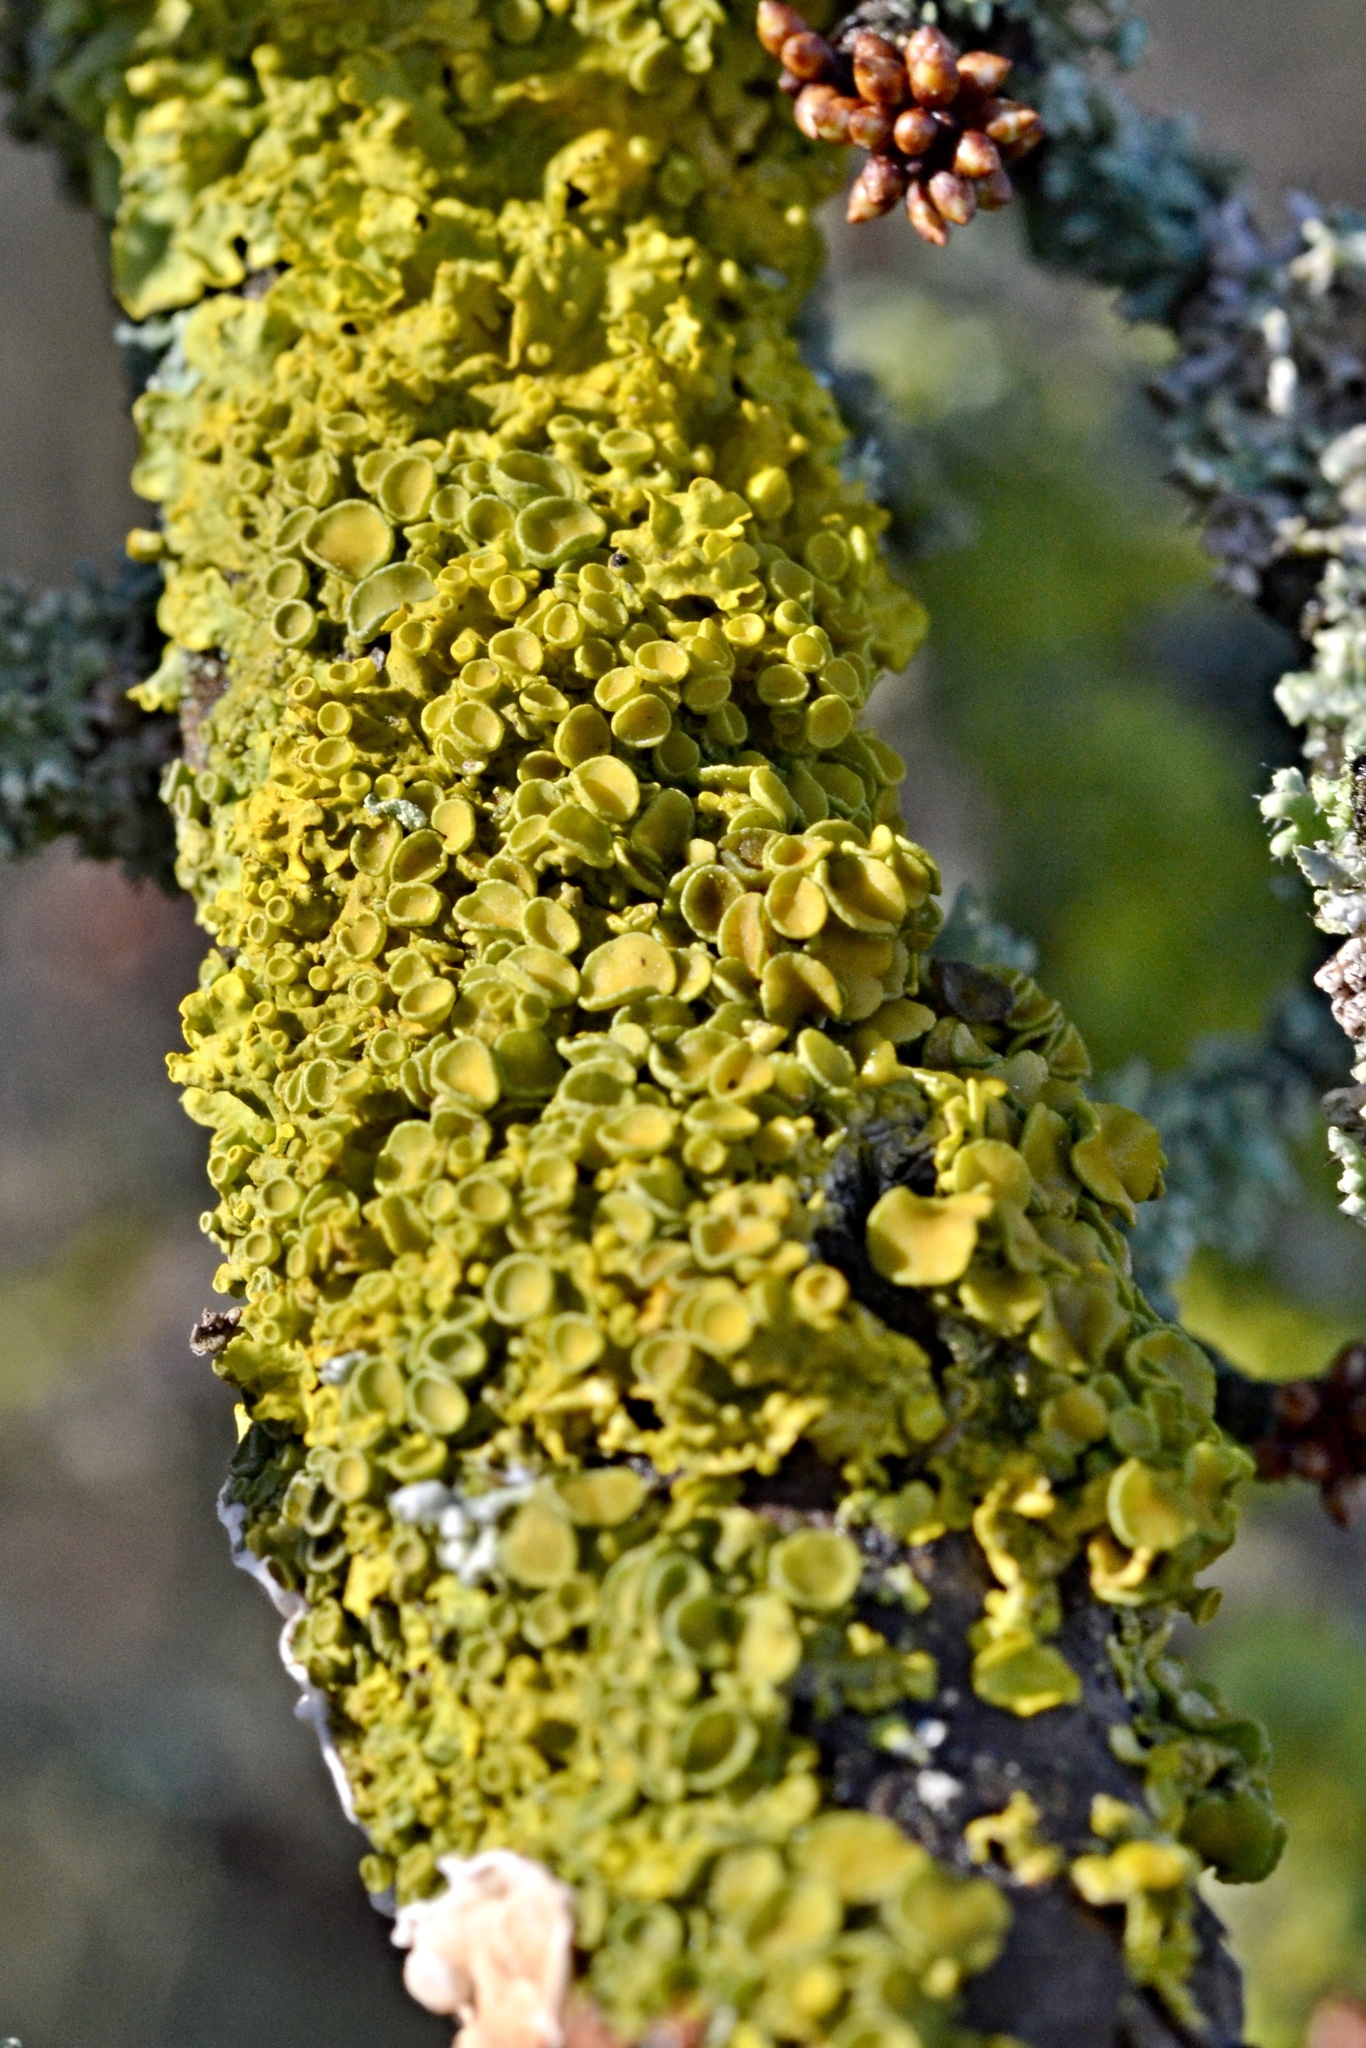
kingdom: Fungi
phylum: Ascomycota
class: Lecanoromycetes
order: Teloschistales
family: Teloschistaceae
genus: Xanthoria
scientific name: Xanthoria parietina
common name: Common orange lichen
